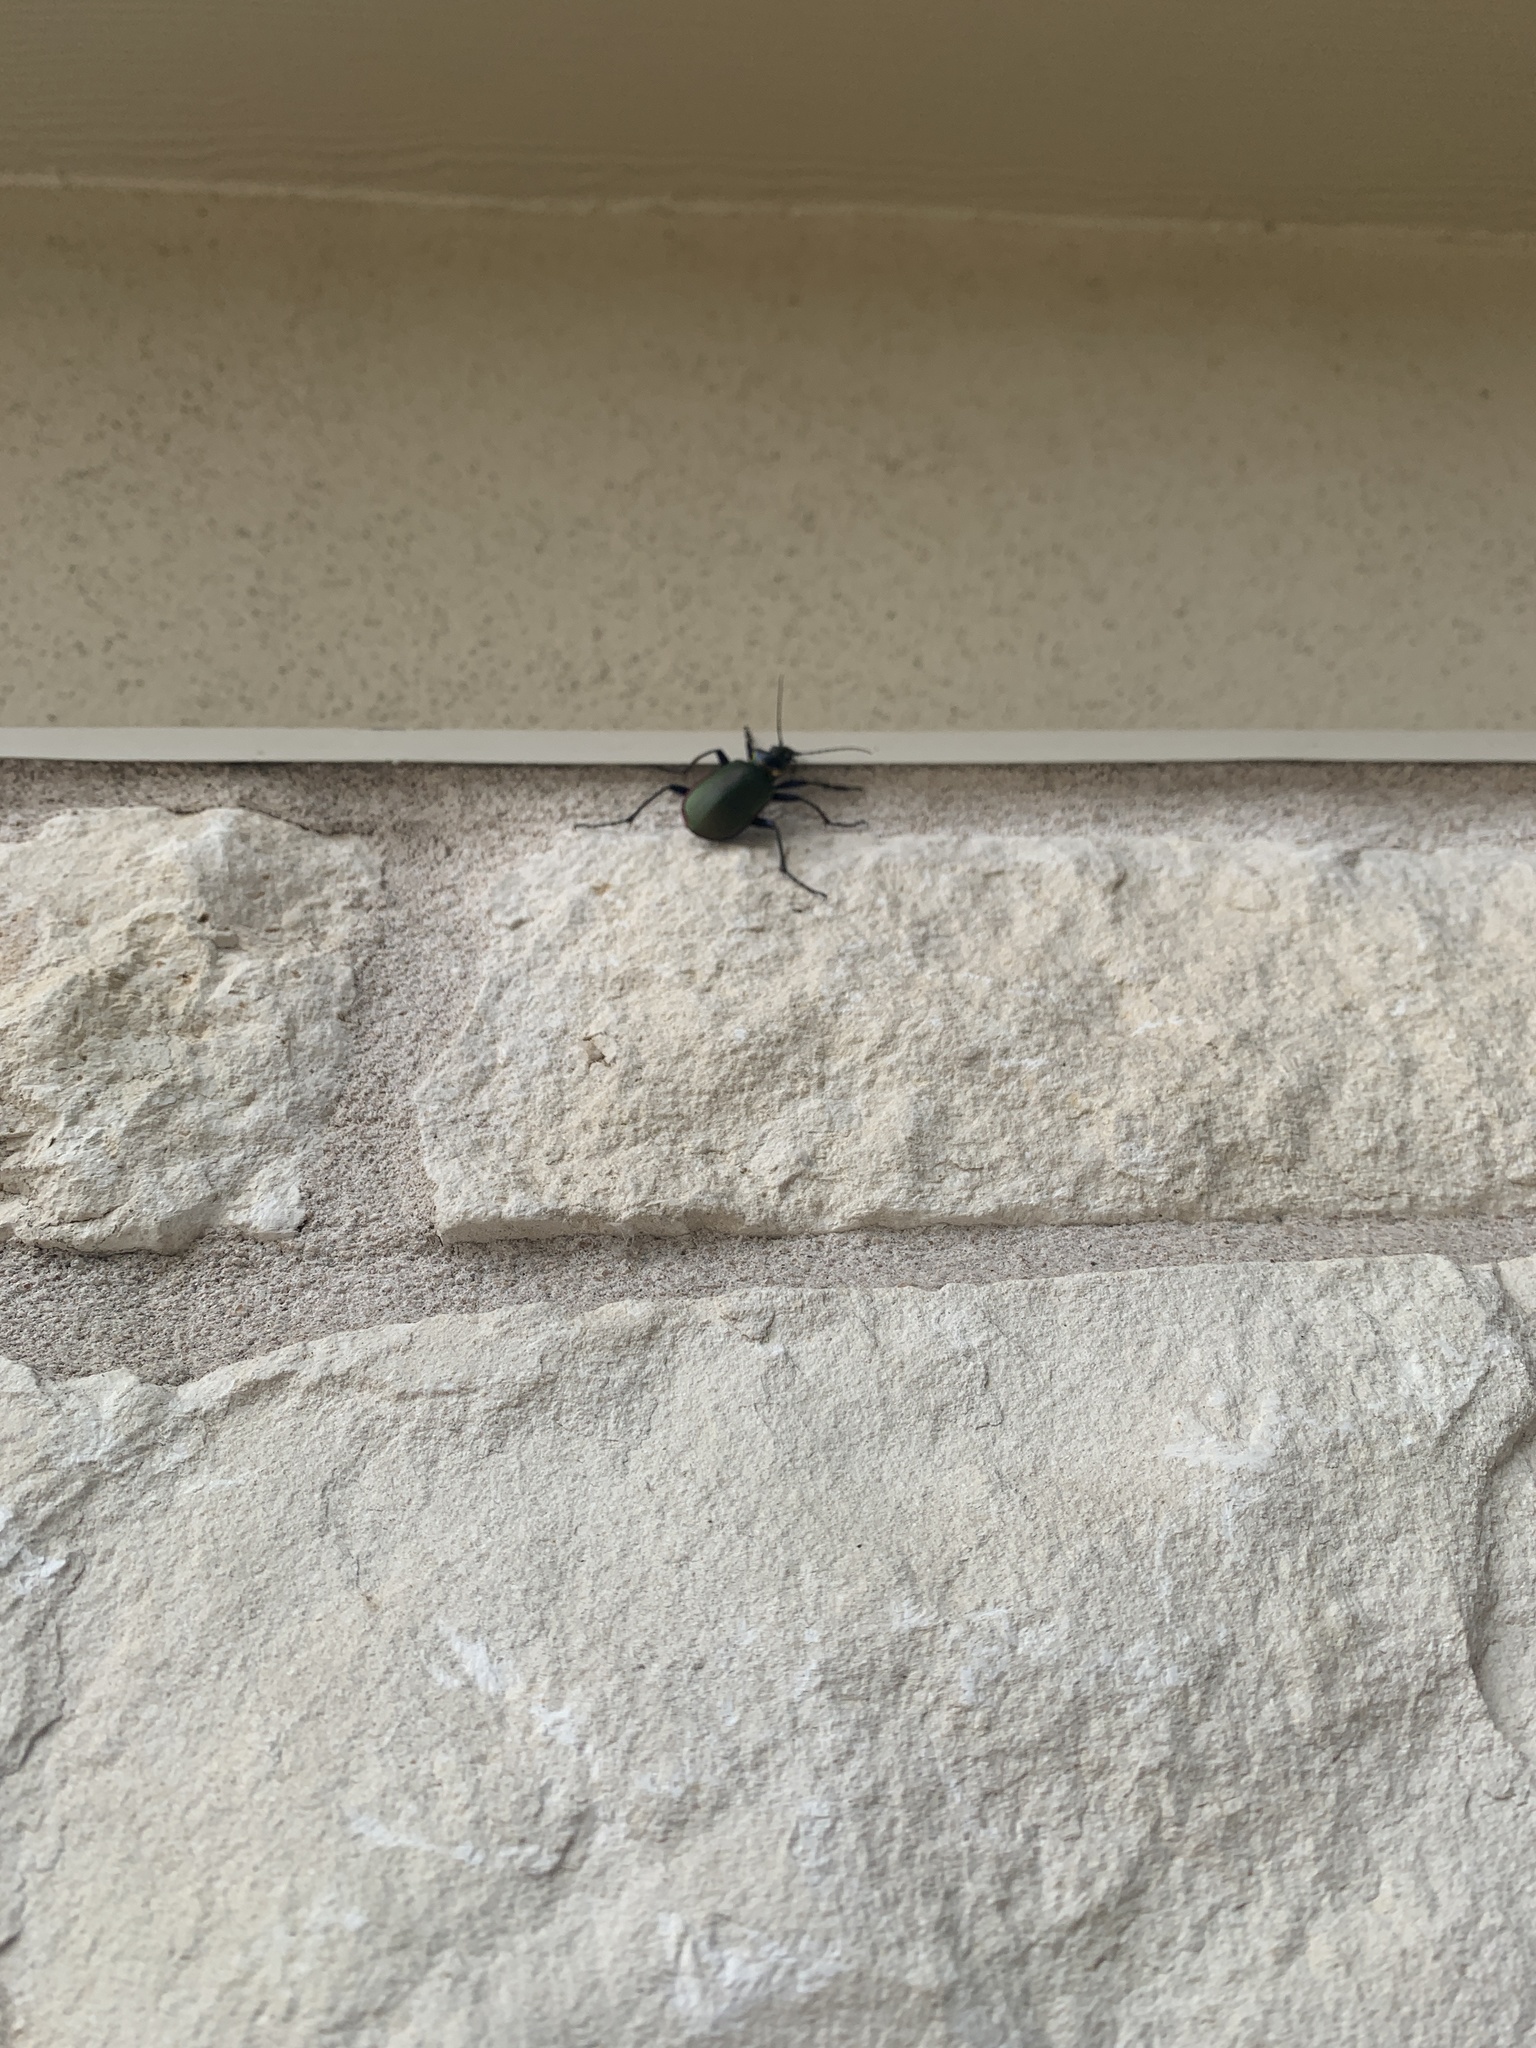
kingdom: Animalia
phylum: Arthropoda
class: Insecta
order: Coleoptera
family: Carabidae
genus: Calosoma
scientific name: Calosoma scrutator
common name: Fiery searcher beetle
